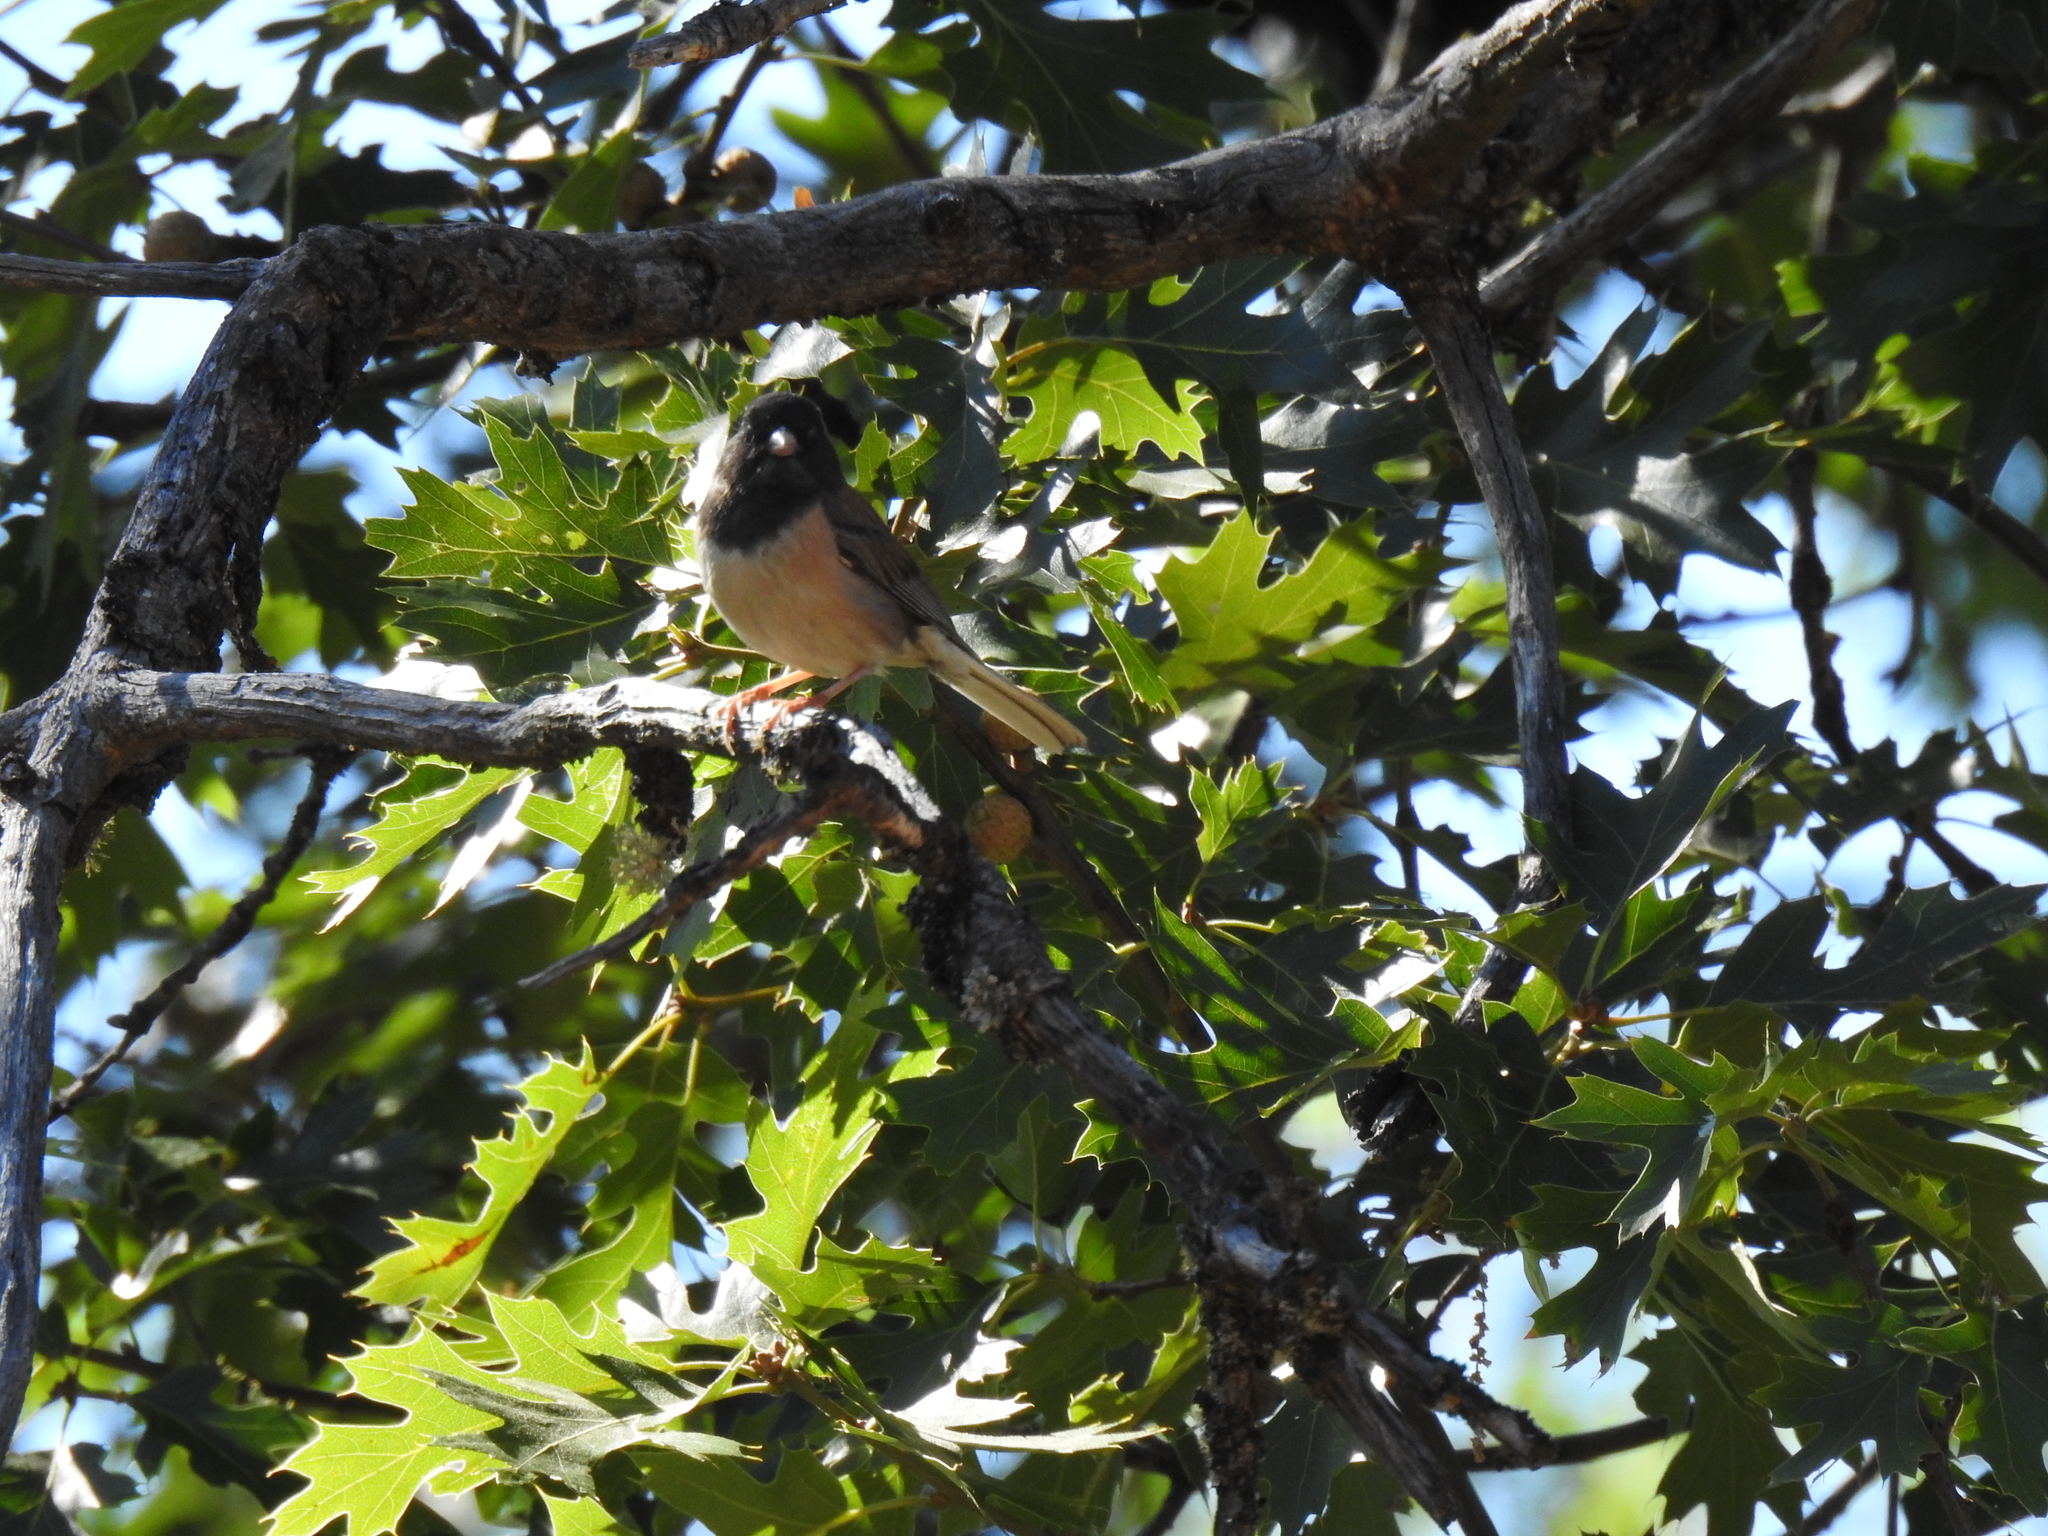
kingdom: Animalia
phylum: Chordata
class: Aves
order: Passeriformes
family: Passerellidae
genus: Junco
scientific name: Junco hyemalis
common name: Dark-eyed junco
